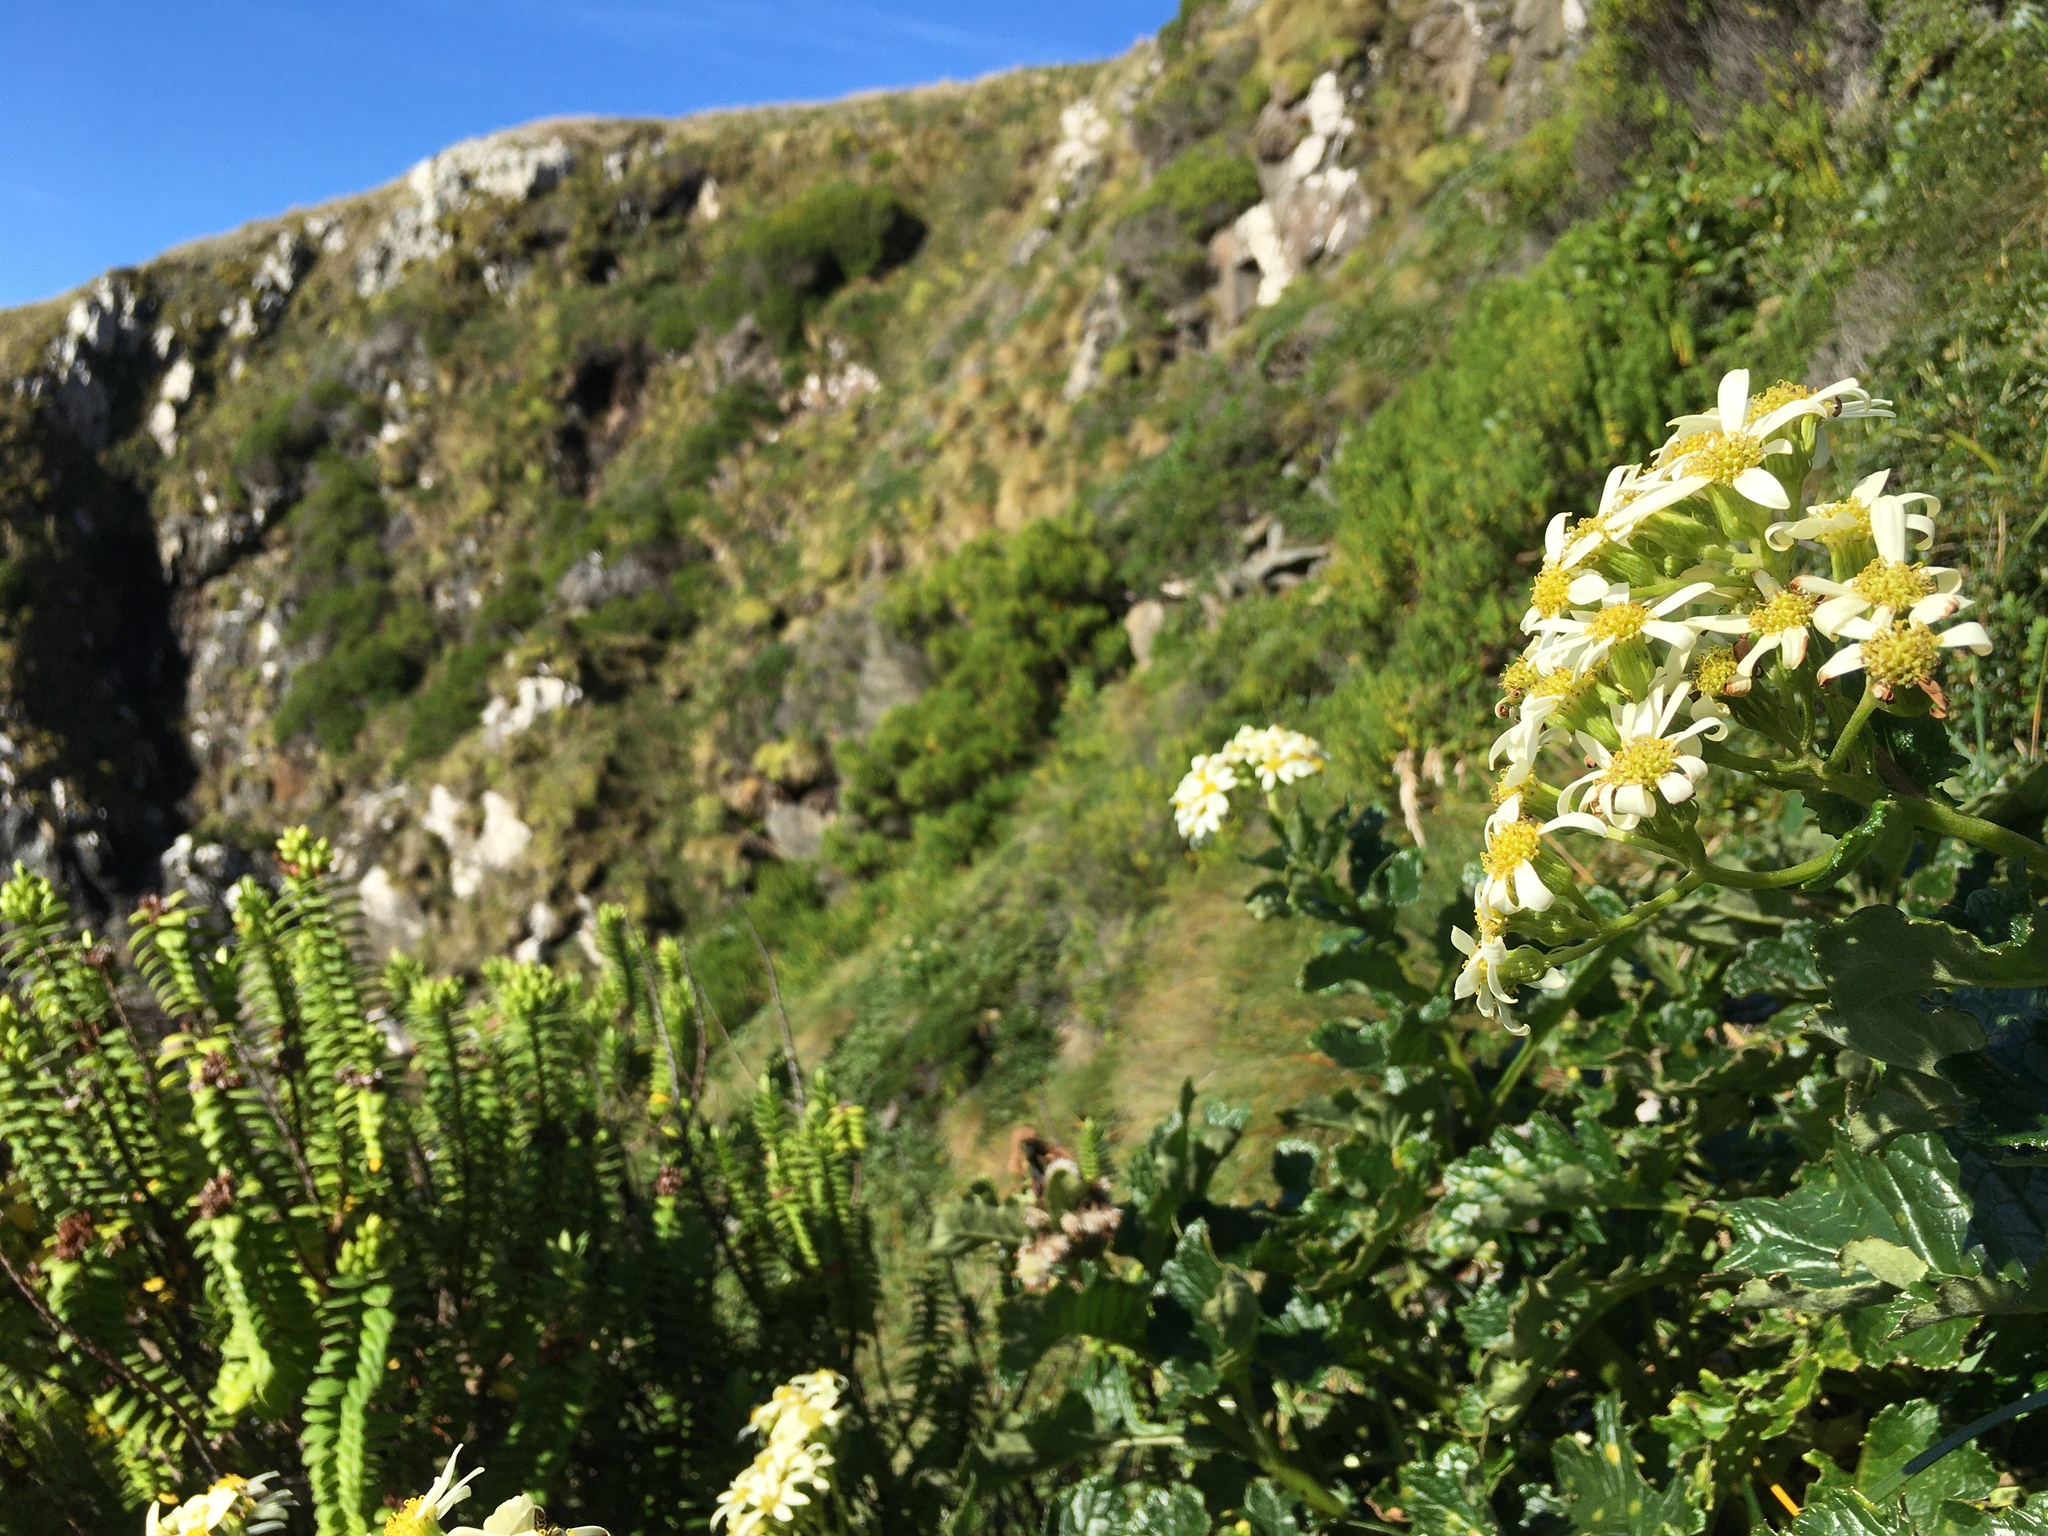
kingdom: Plantae
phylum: Tracheophyta
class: Magnoliopsida
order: Asterales
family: Asteraceae
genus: Iocenes
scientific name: Iocenes virens
